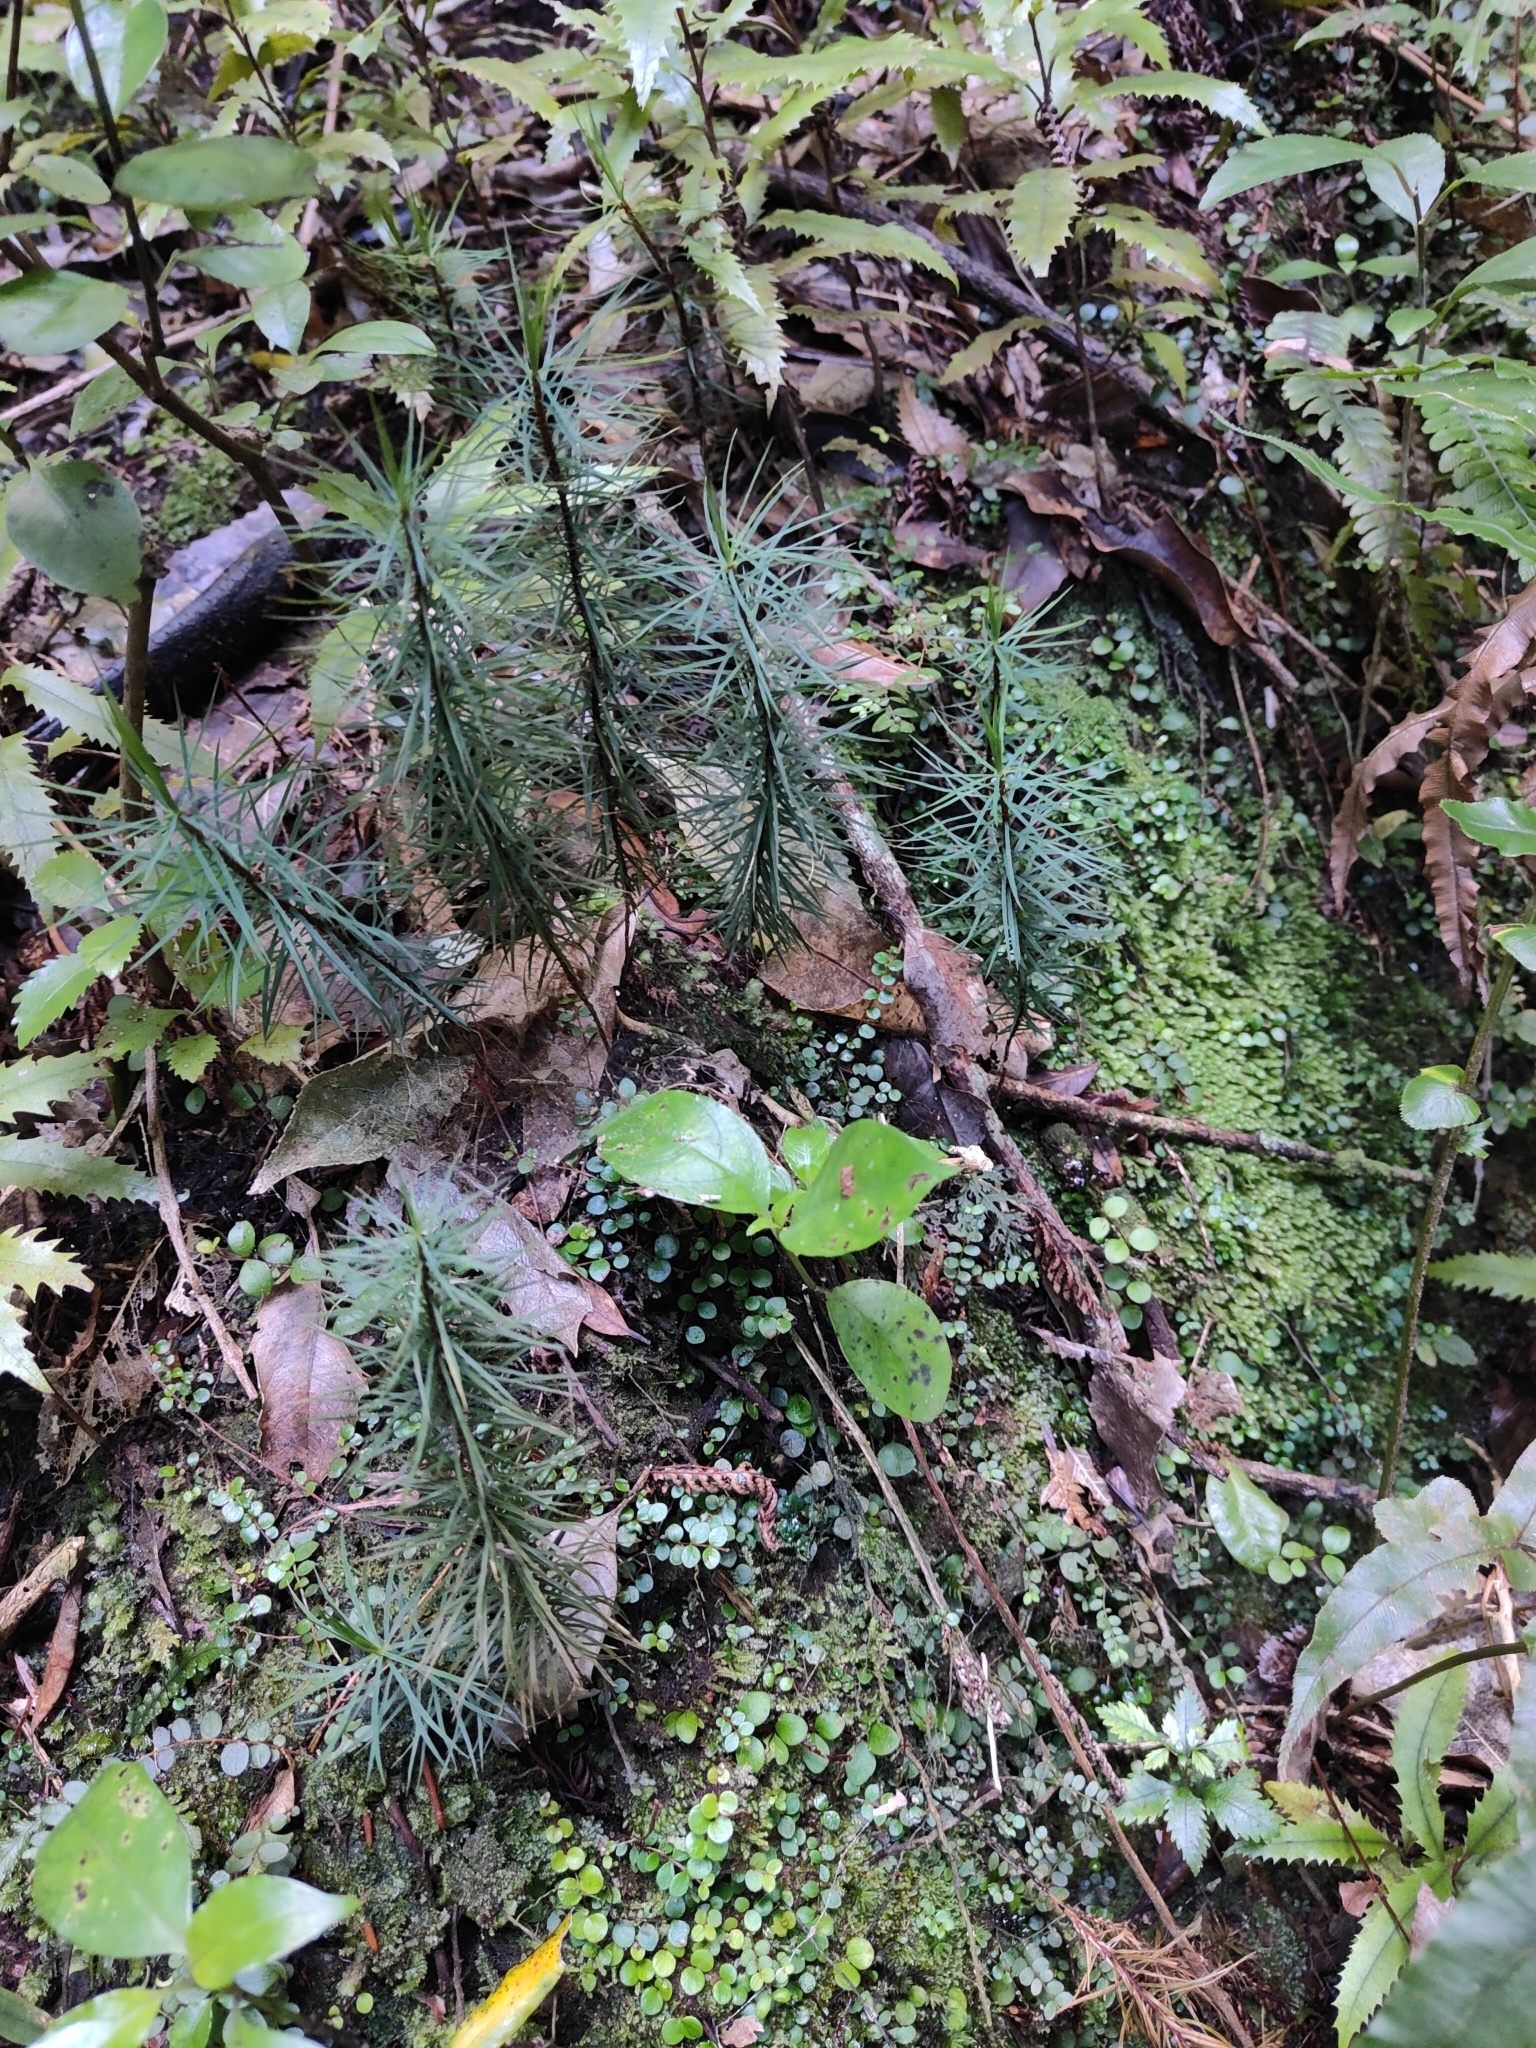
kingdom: Plantae
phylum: Bryophyta
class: Polytrichopsida
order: Polytrichales
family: Polytrichaceae
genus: Dawsonia
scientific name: Dawsonia superba
